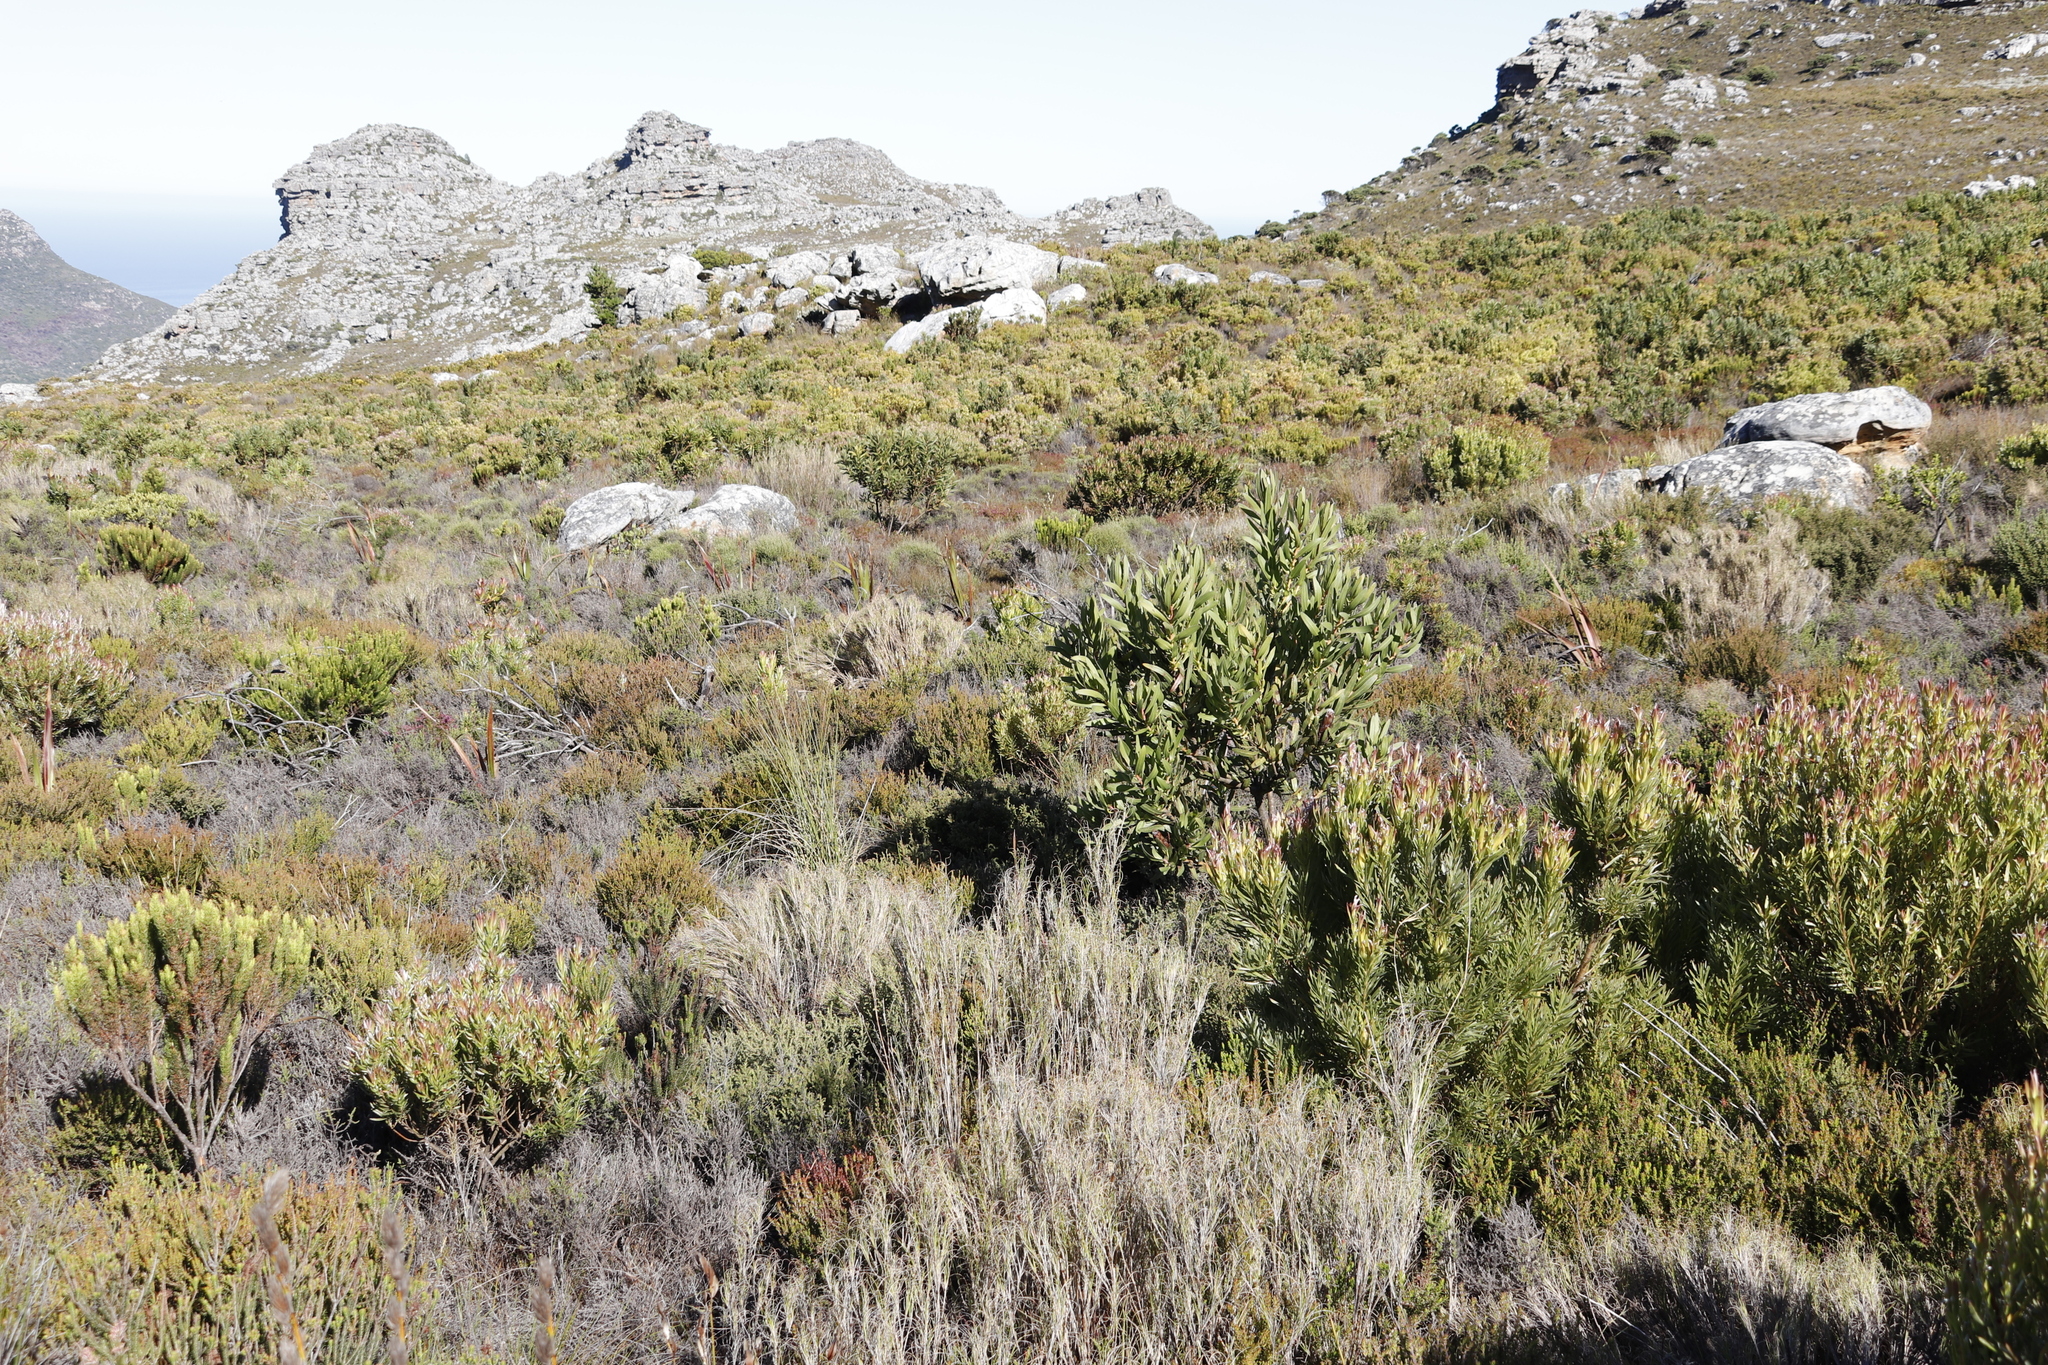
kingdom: Plantae
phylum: Tracheophyta
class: Magnoliopsida
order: Proteales
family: Proteaceae
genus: Protea
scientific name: Protea lepidocarpodendron
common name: Black-bearded protea
